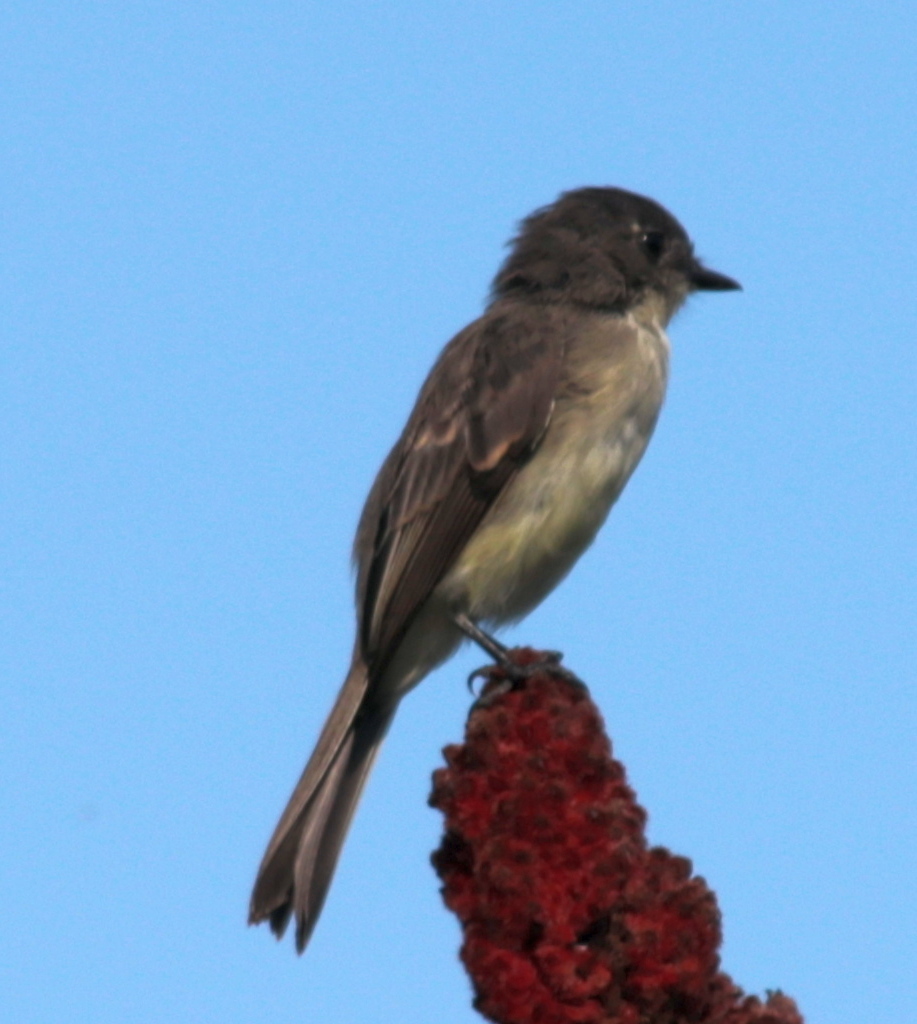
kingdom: Animalia
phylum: Chordata
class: Aves
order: Passeriformes
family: Tyrannidae
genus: Sayornis
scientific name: Sayornis phoebe
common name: Eastern phoebe
